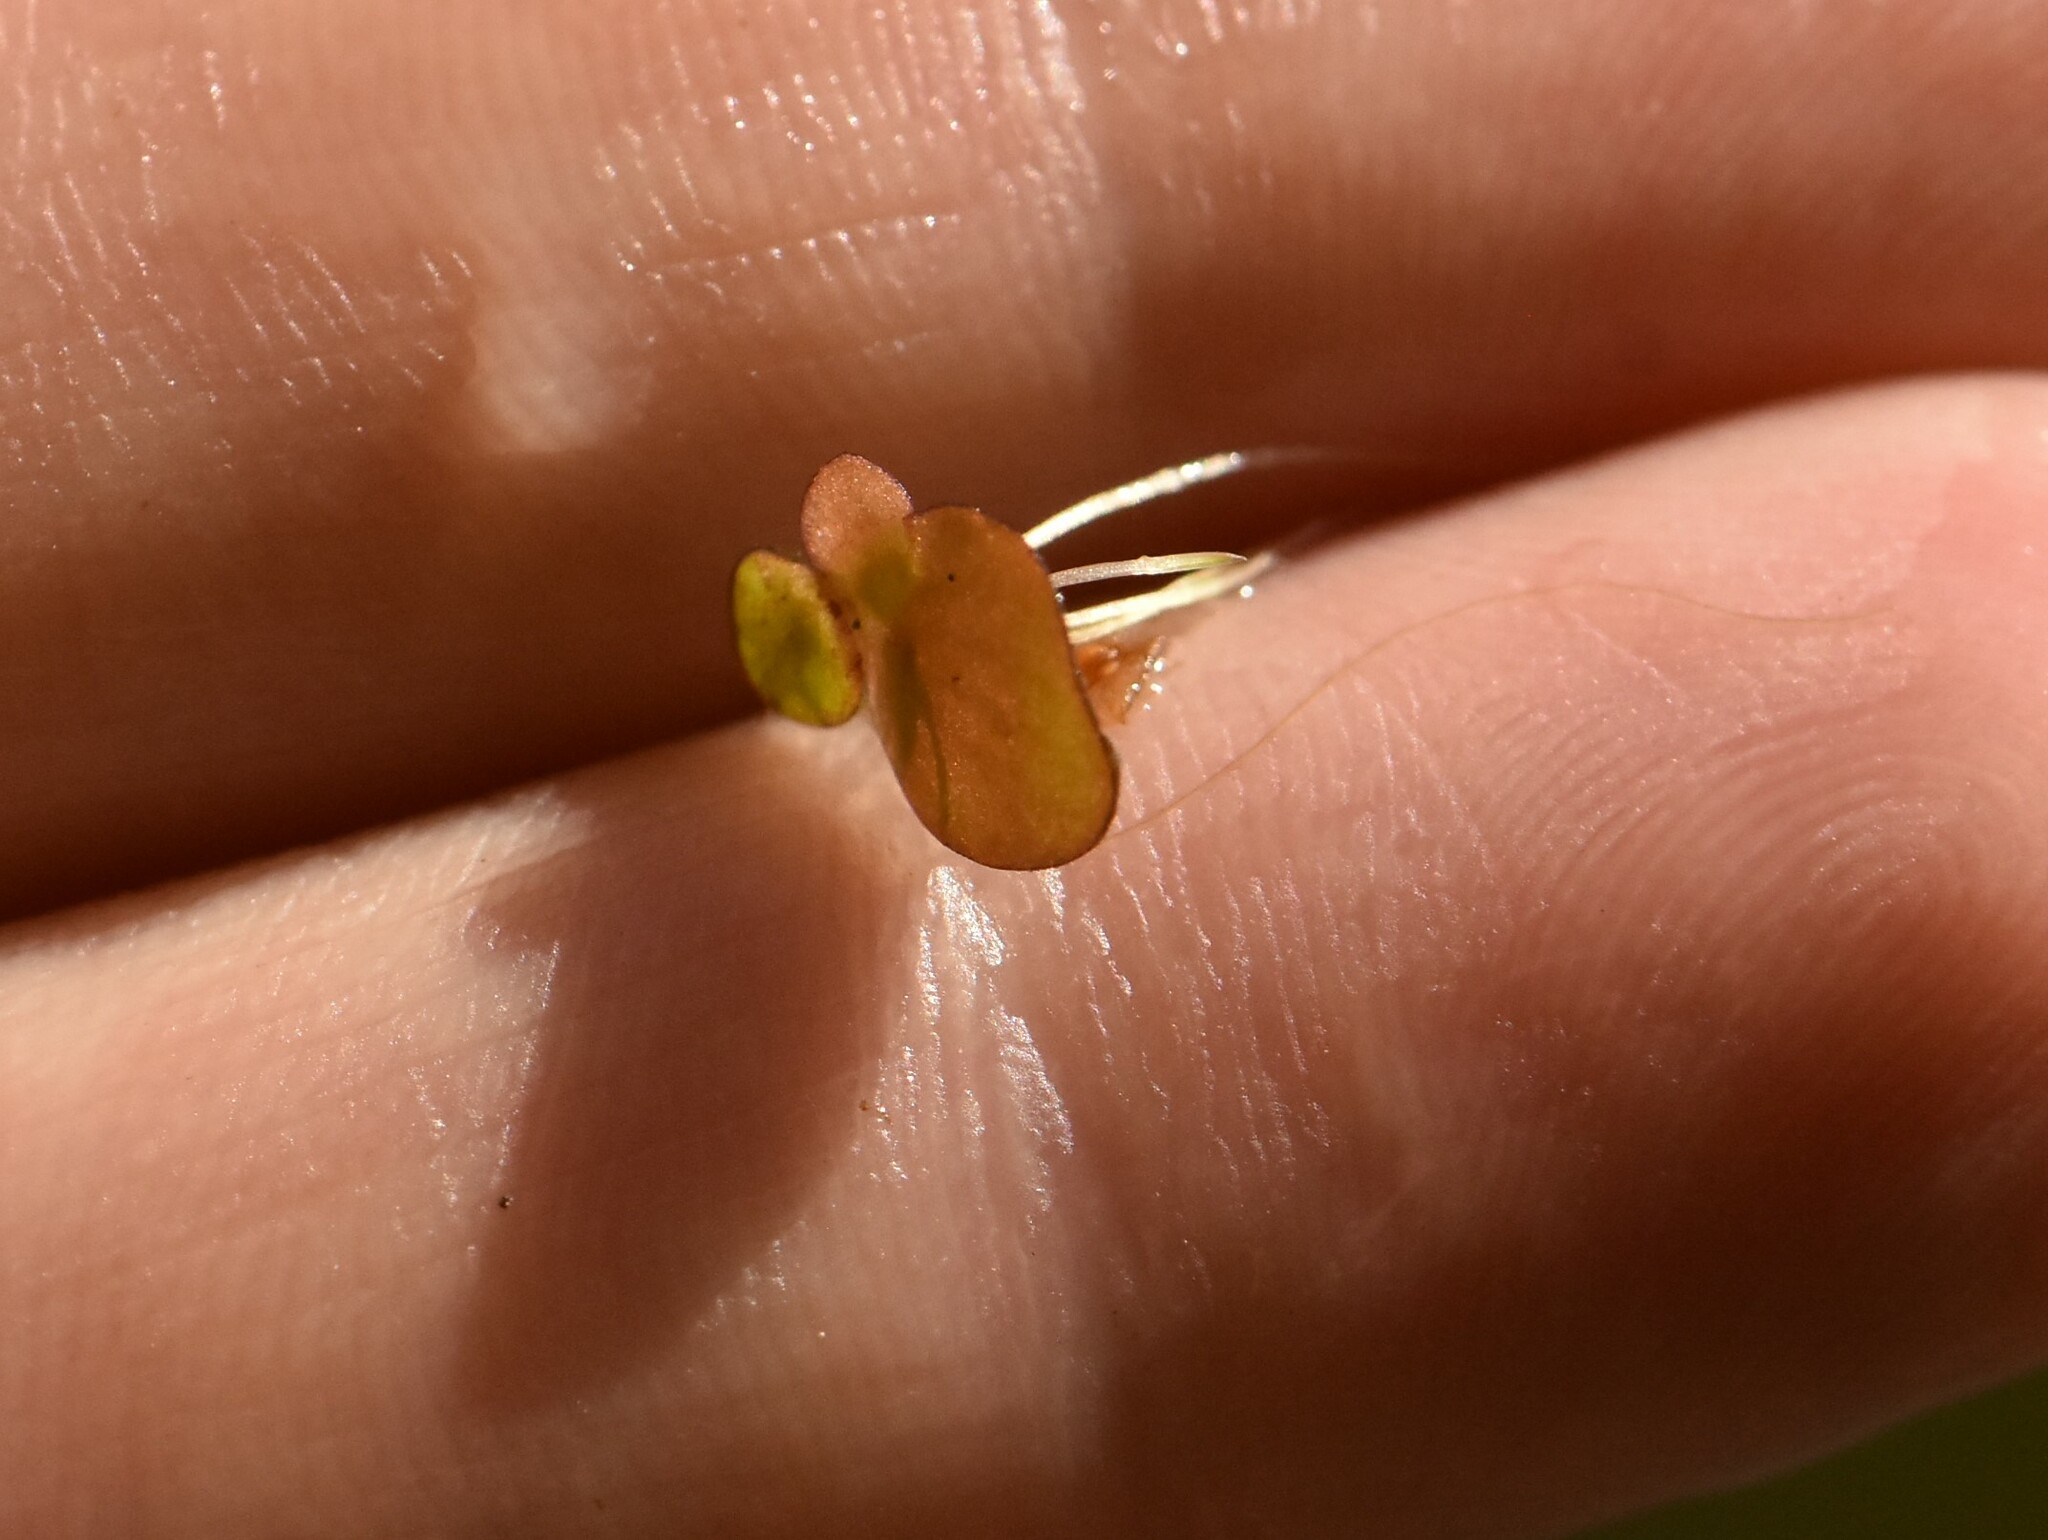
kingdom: Plantae
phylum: Tracheophyta
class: Liliopsida
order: Alismatales
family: Araceae
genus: Spirodela
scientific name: Spirodela polyrhiza
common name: Great duckweed
